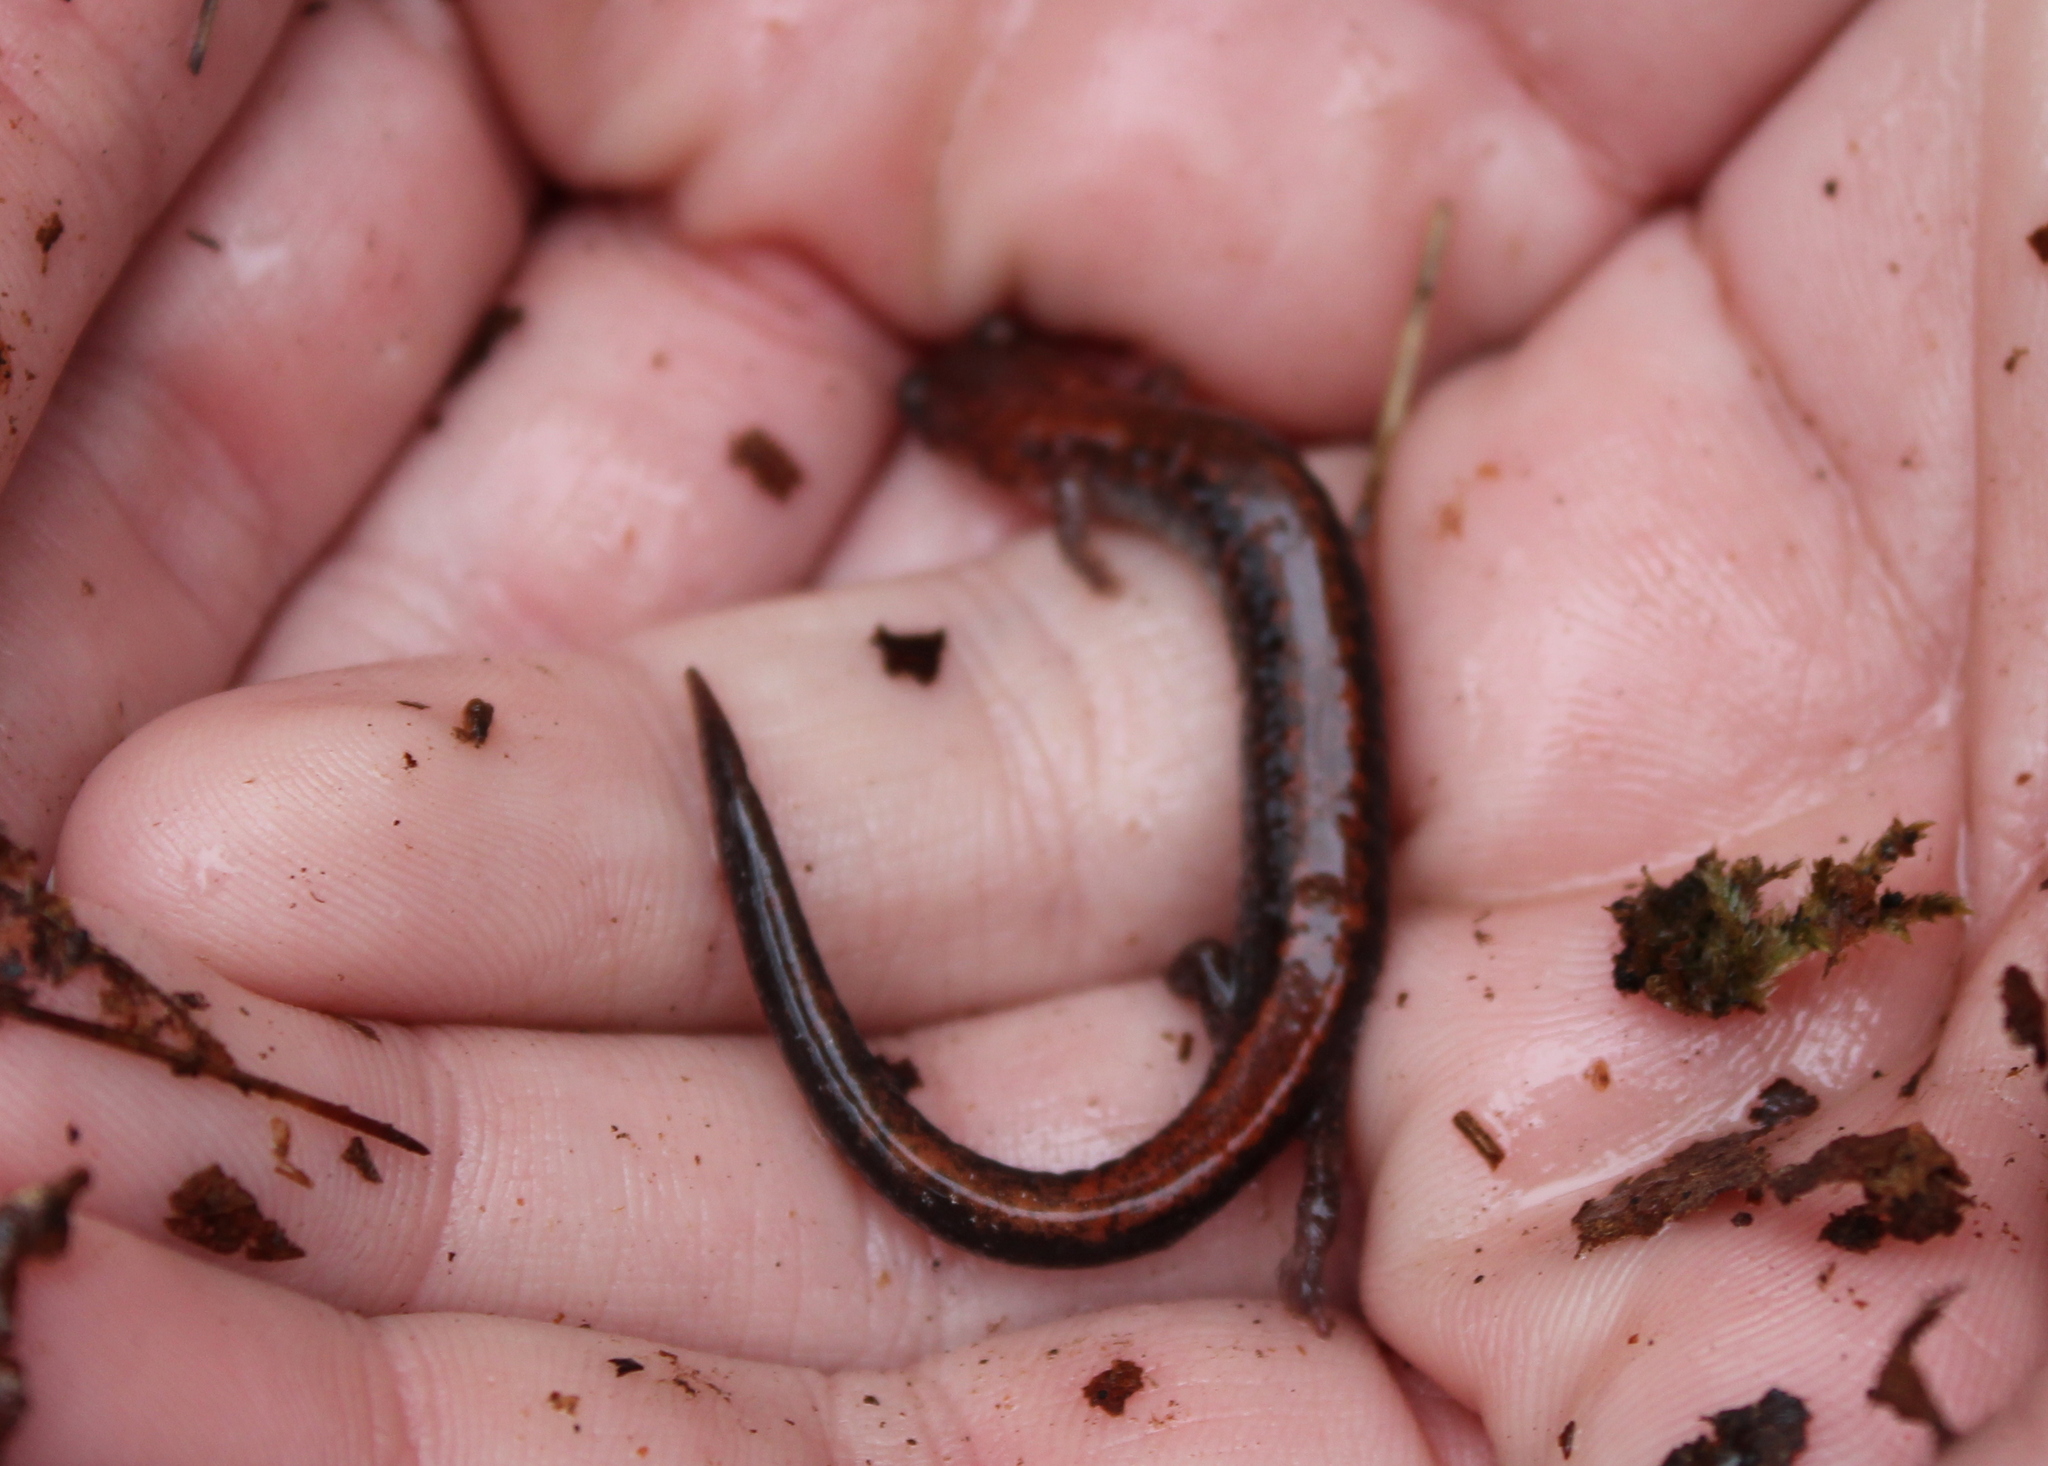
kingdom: Animalia
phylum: Chordata
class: Amphibia
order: Caudata
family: Plethodontidae
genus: Plethodon
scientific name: Plethodon cinereus
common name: Redback salamander
